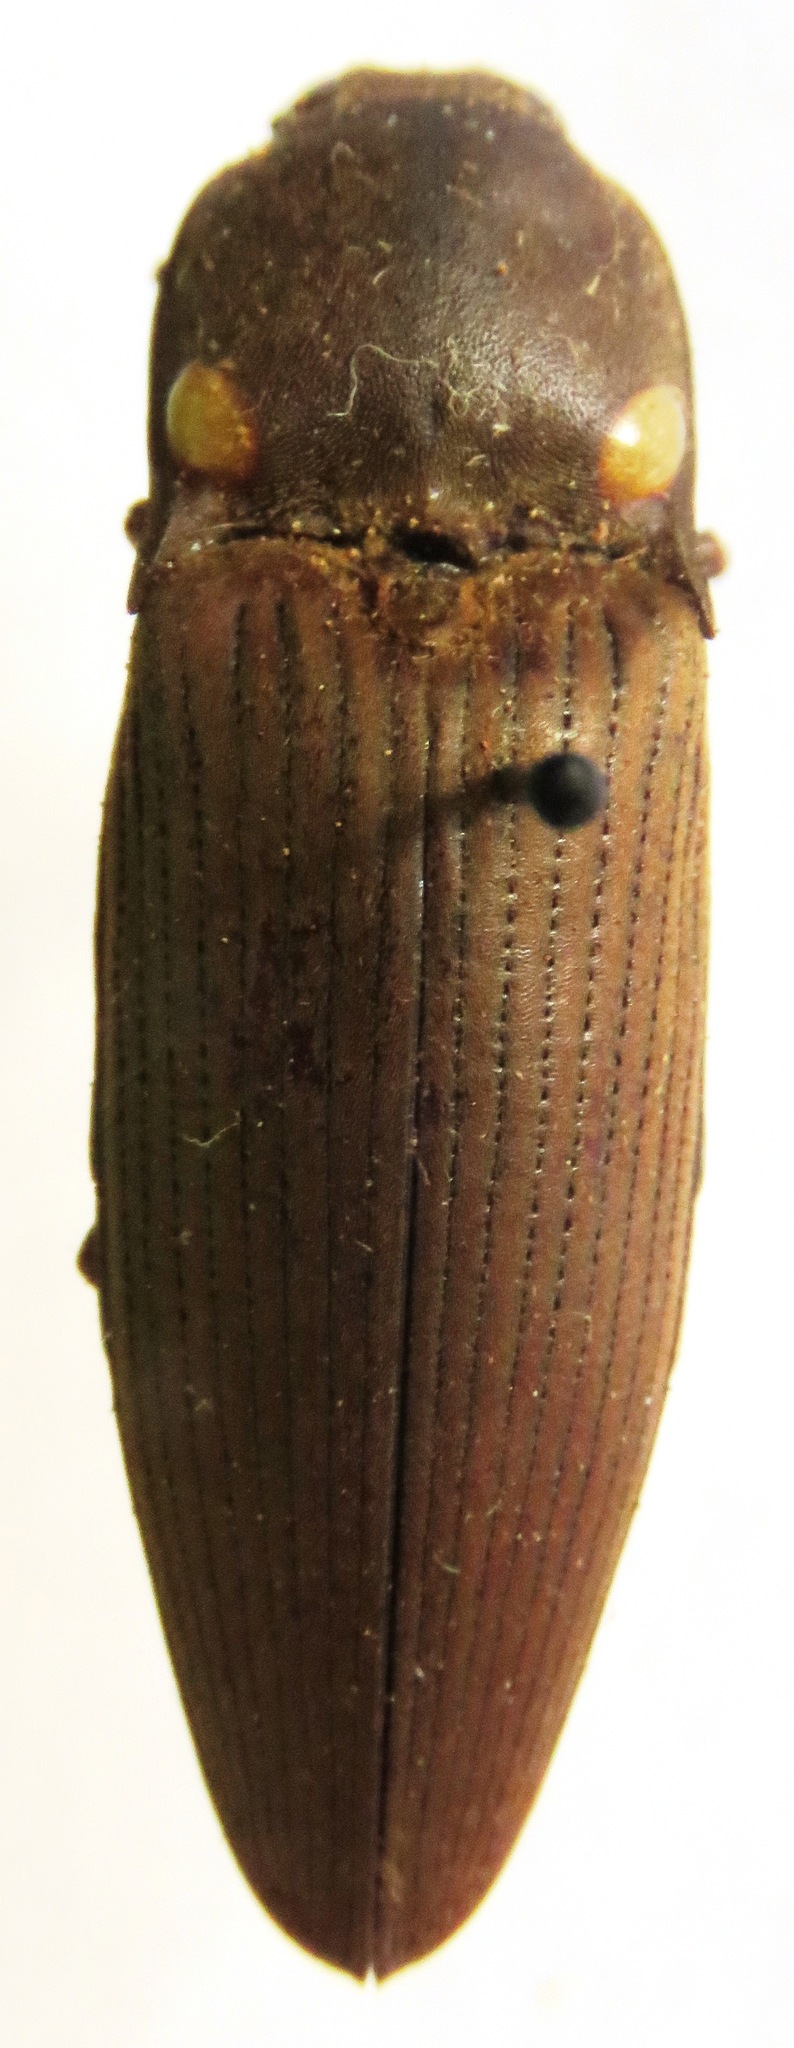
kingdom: Animalia
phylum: Arthropoda
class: Insecta
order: Coleoptera
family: Elateridae
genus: Pyrophorus
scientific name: Pyrophorus
